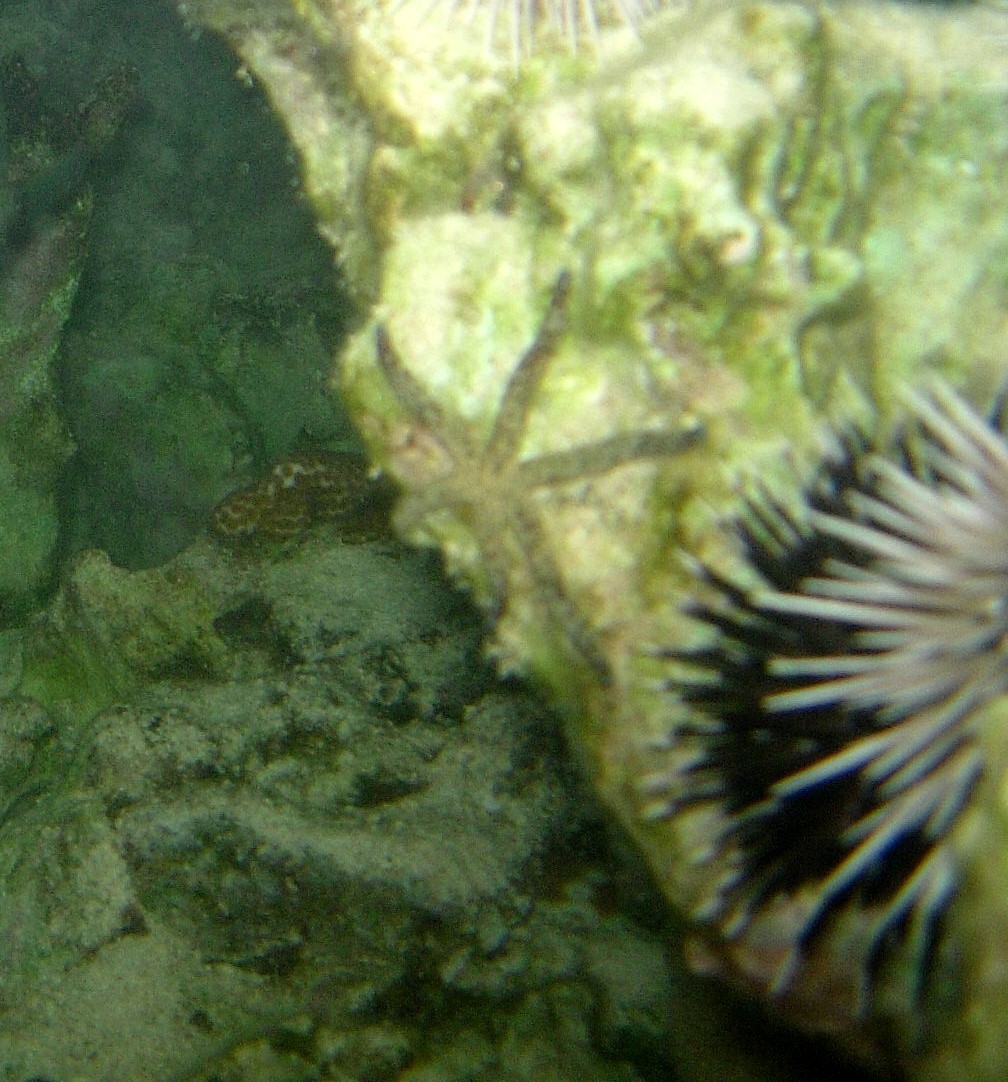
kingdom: Animalia
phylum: Echinodermata
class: Asteroidea
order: Valvatida
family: Ophidiasteridae
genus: Linckia
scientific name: Linckia multifora
